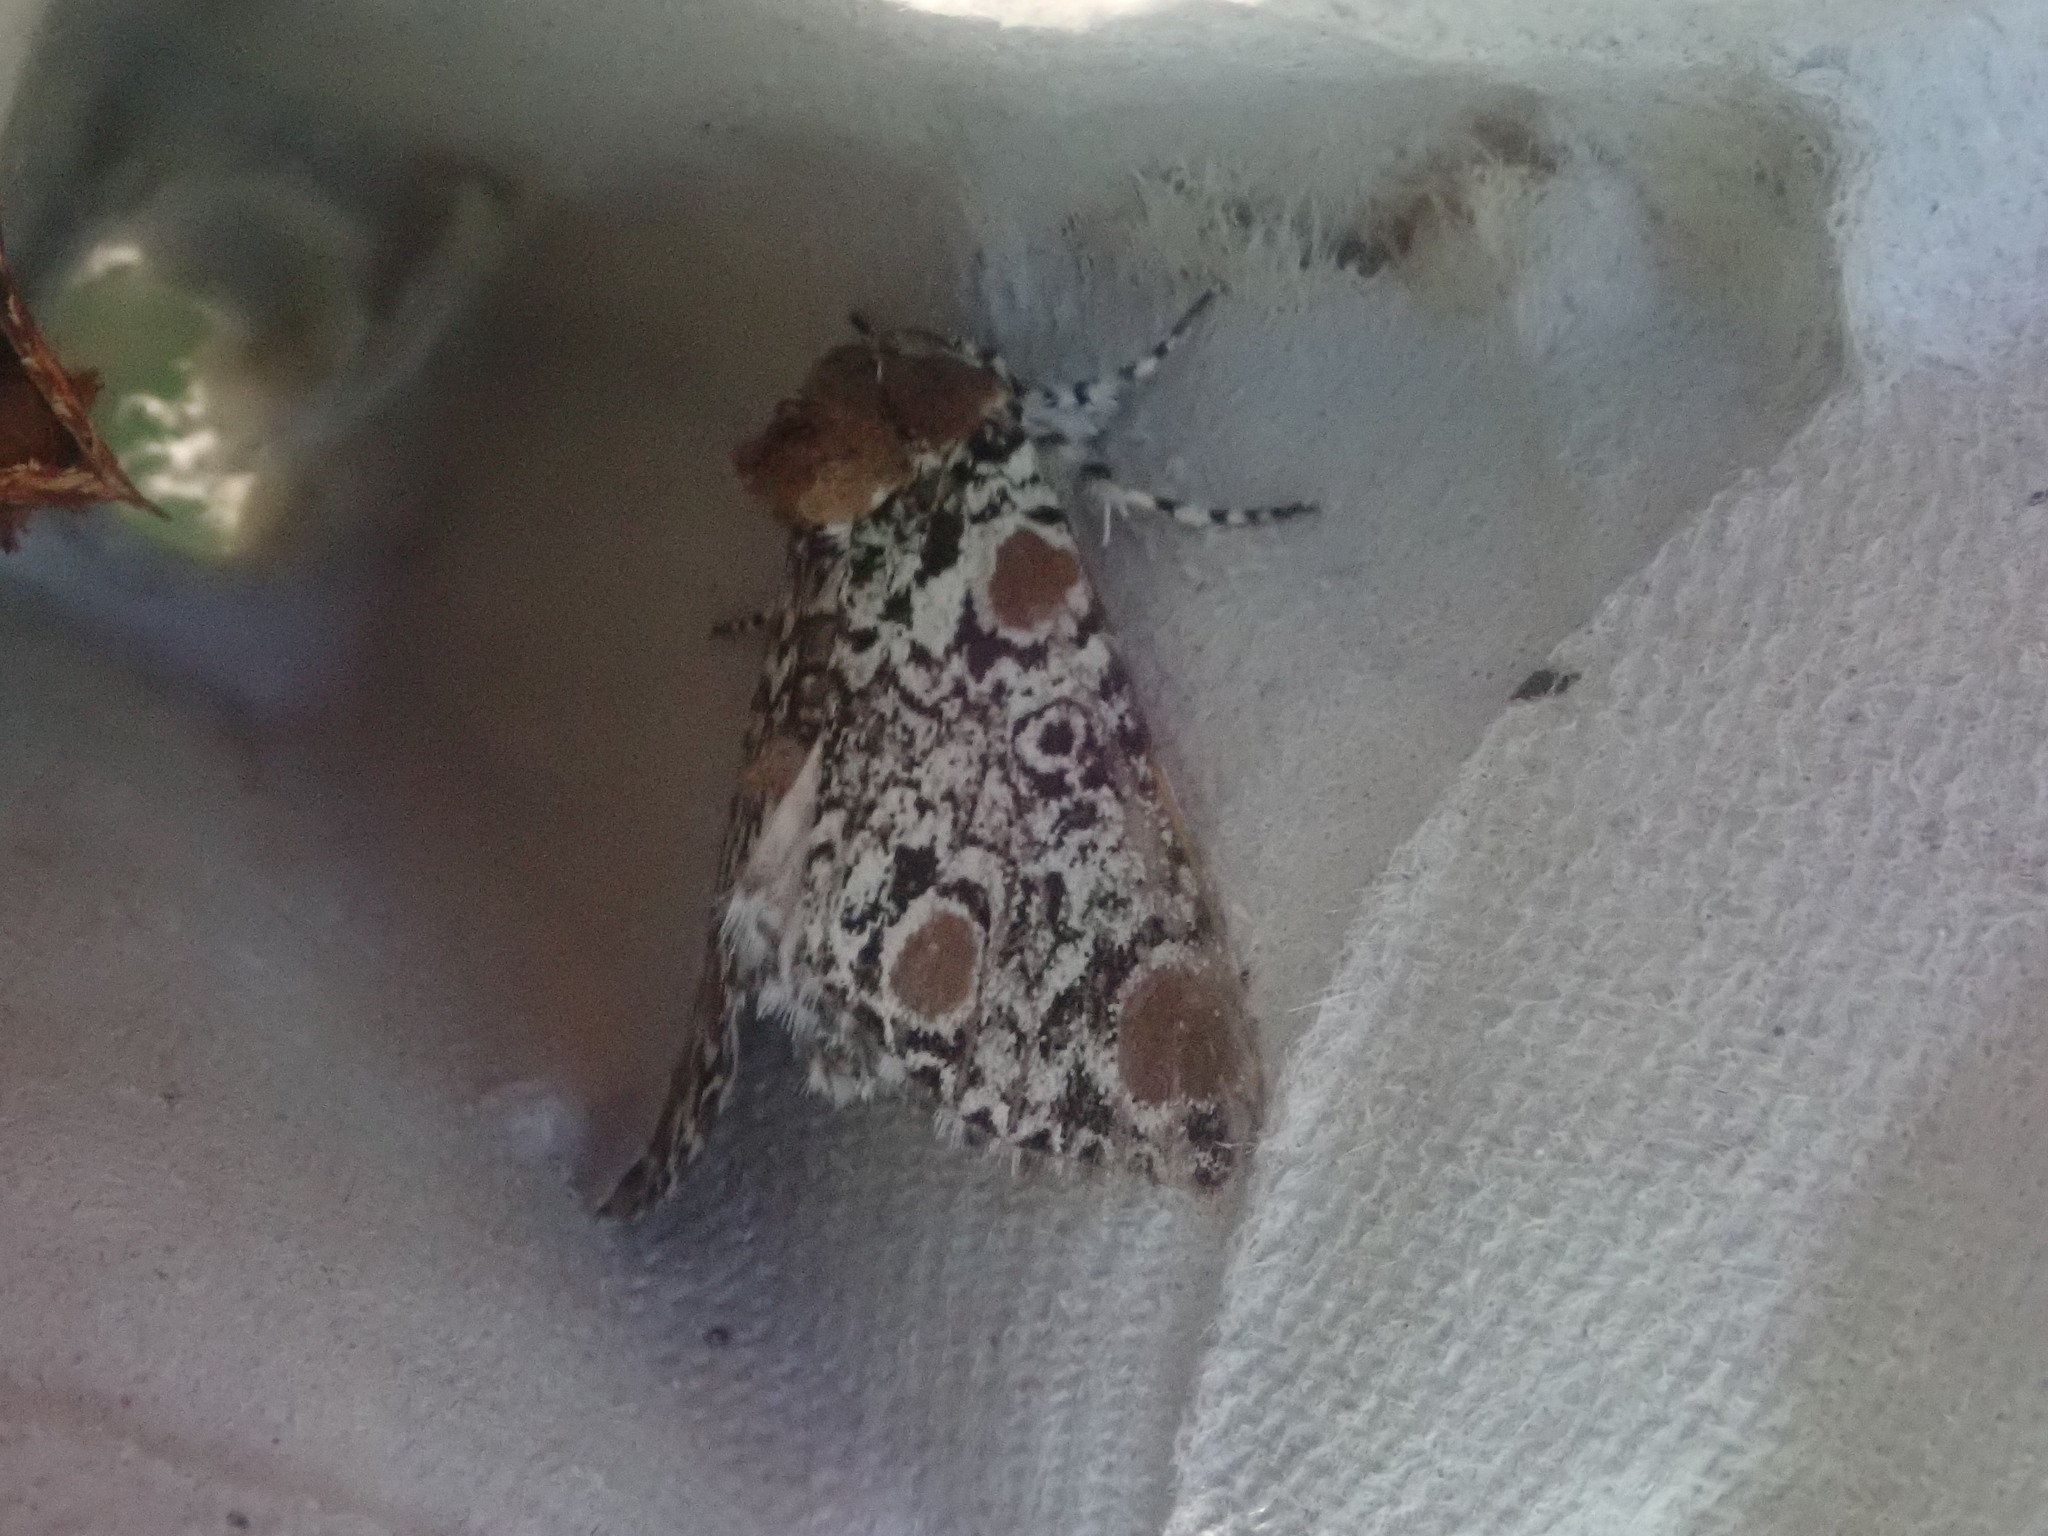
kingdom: Animalia
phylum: Arthropoda
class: Insecta
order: Lepidoptera
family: Noctuidae
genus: Harrisimemna
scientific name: Harrisimemna trisignata
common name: Harris threespot
